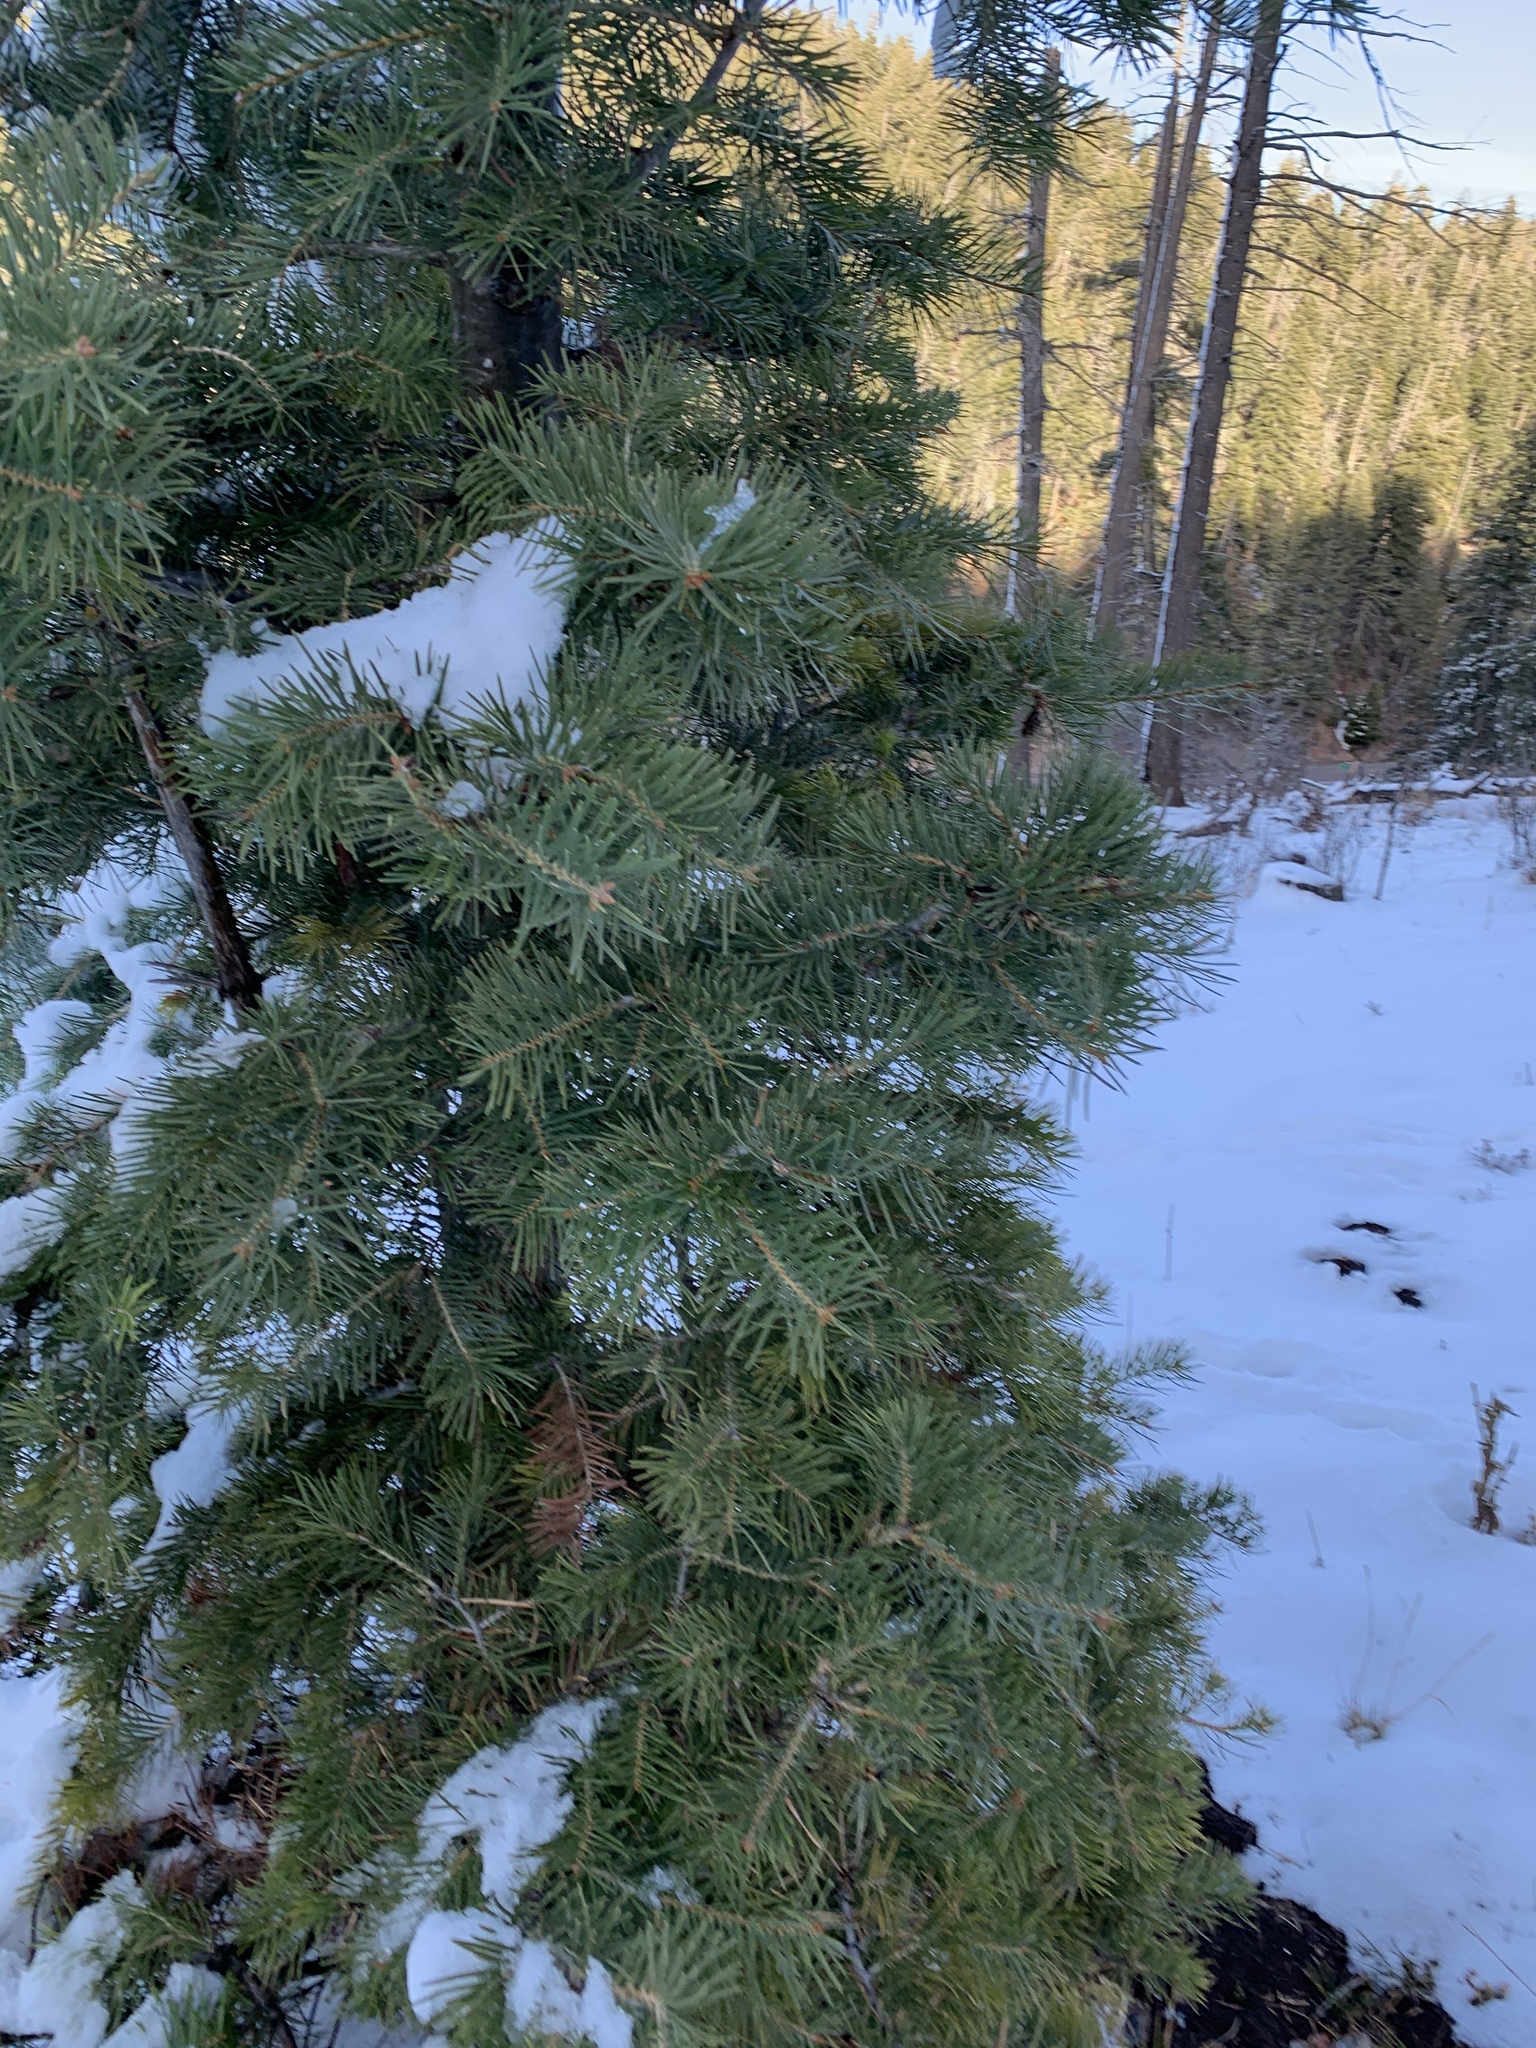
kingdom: Plantae
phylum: Tracheophyta
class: Pinopsida
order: Pinales
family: Pinaceae
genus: Abies
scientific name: Abies concolor
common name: Colorado fir
